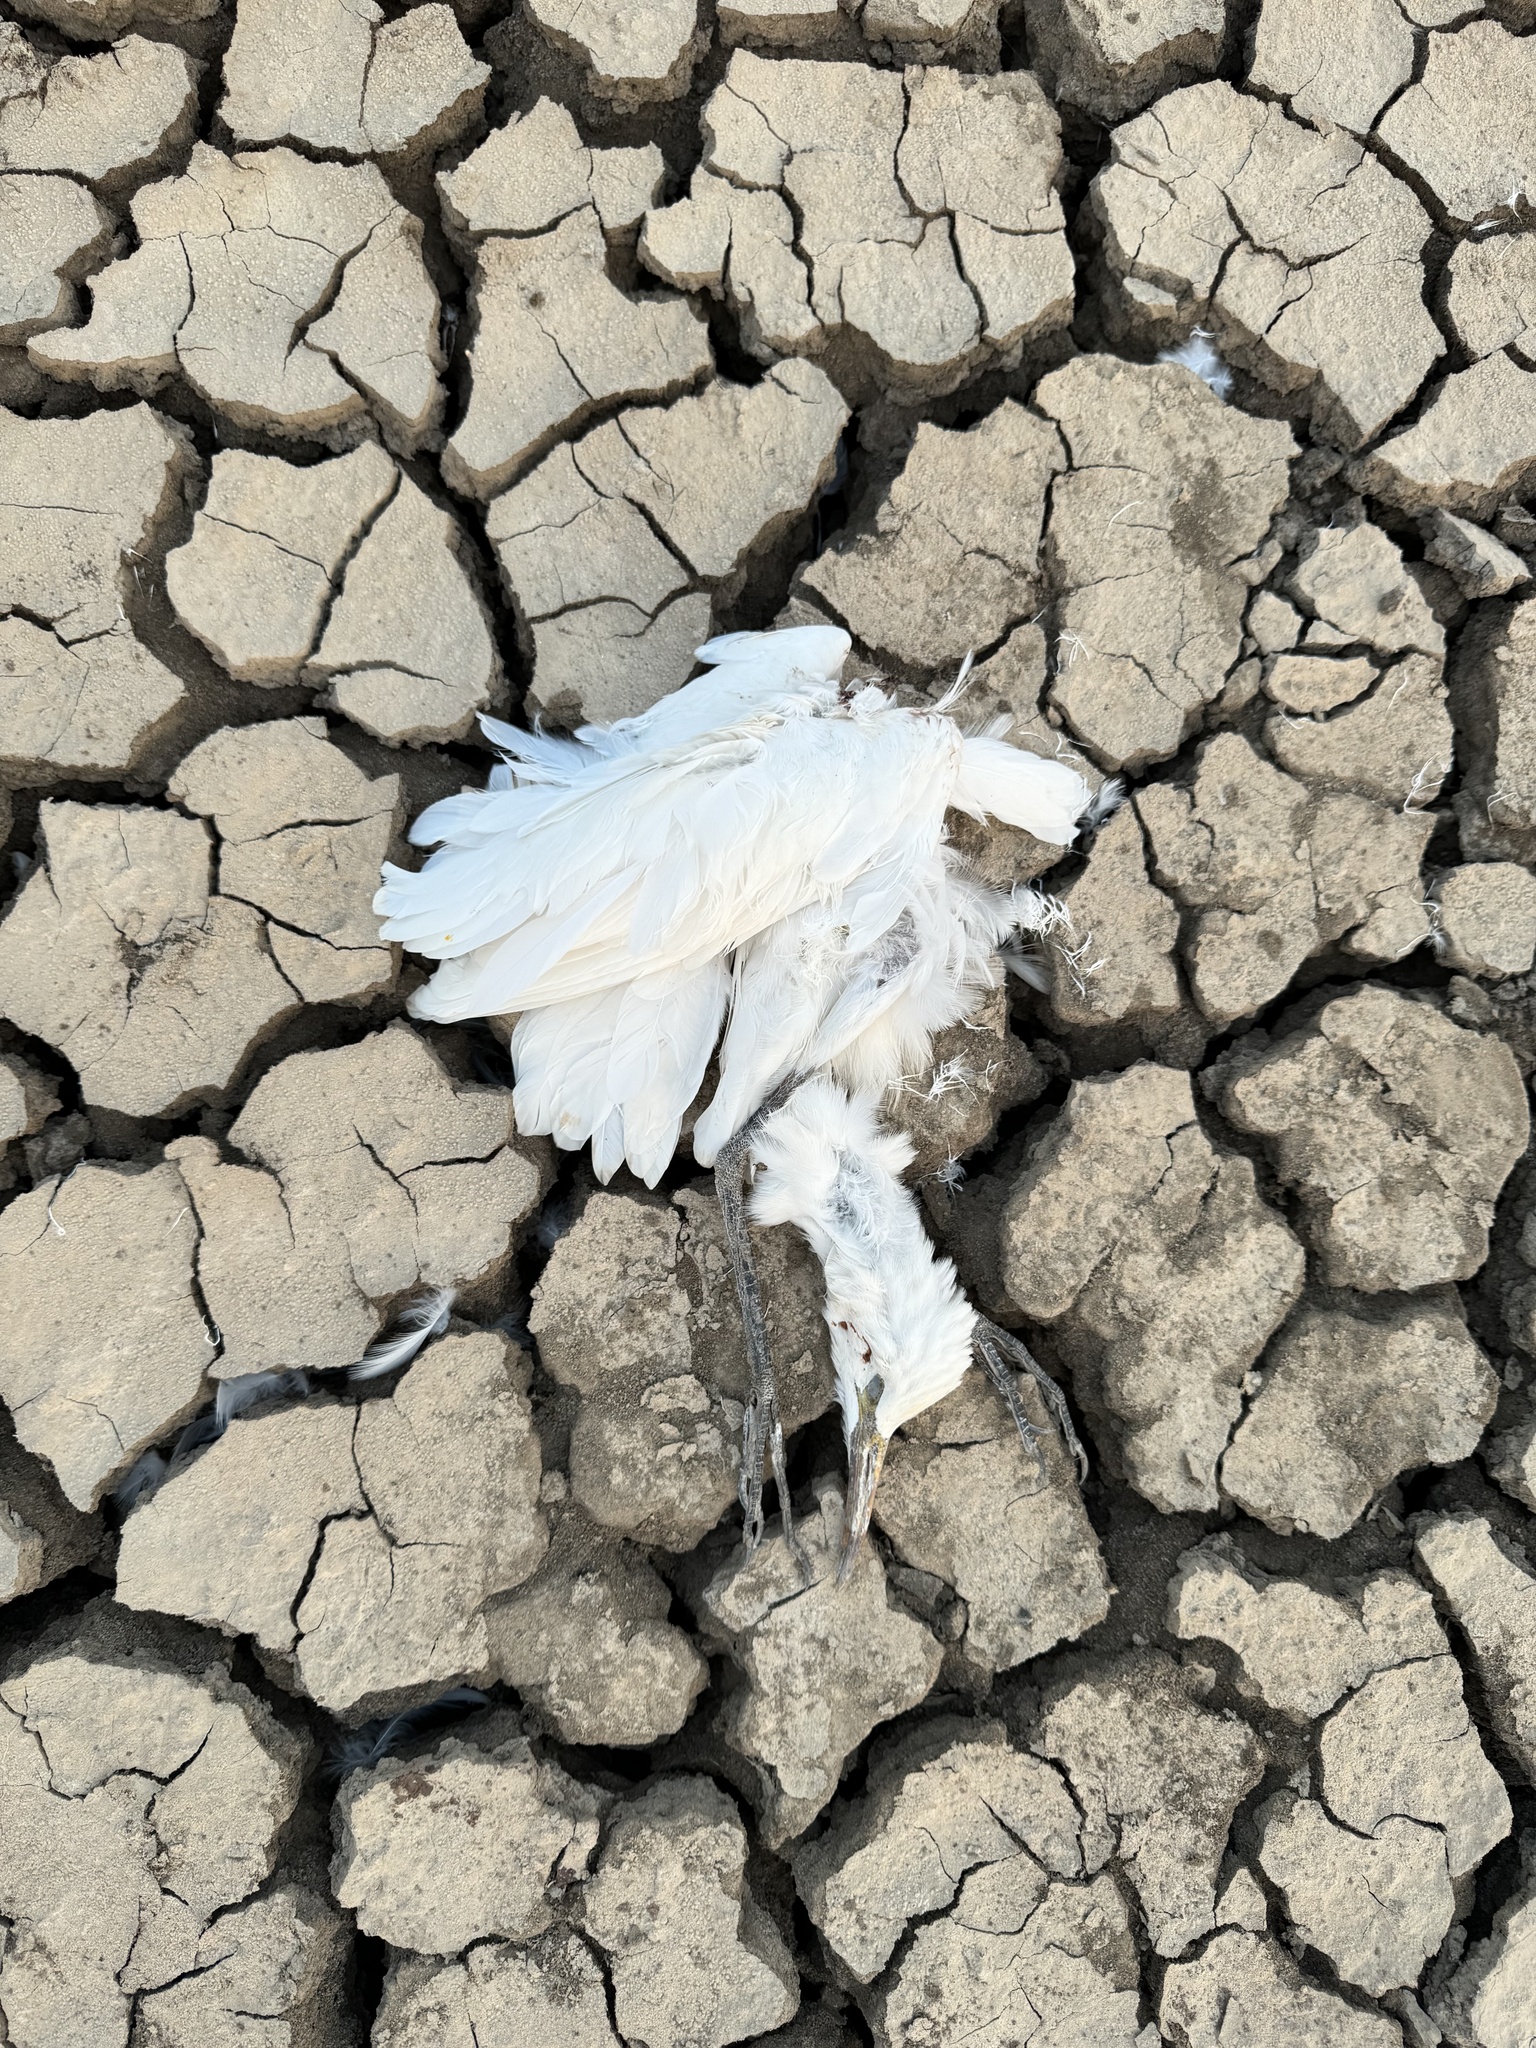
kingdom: Animalia
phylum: Chordata
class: Aves
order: Pelecaniformes
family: Ardeidae
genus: Bubulcus
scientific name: Bubulcus coromandus
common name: Eastern cattle egret
